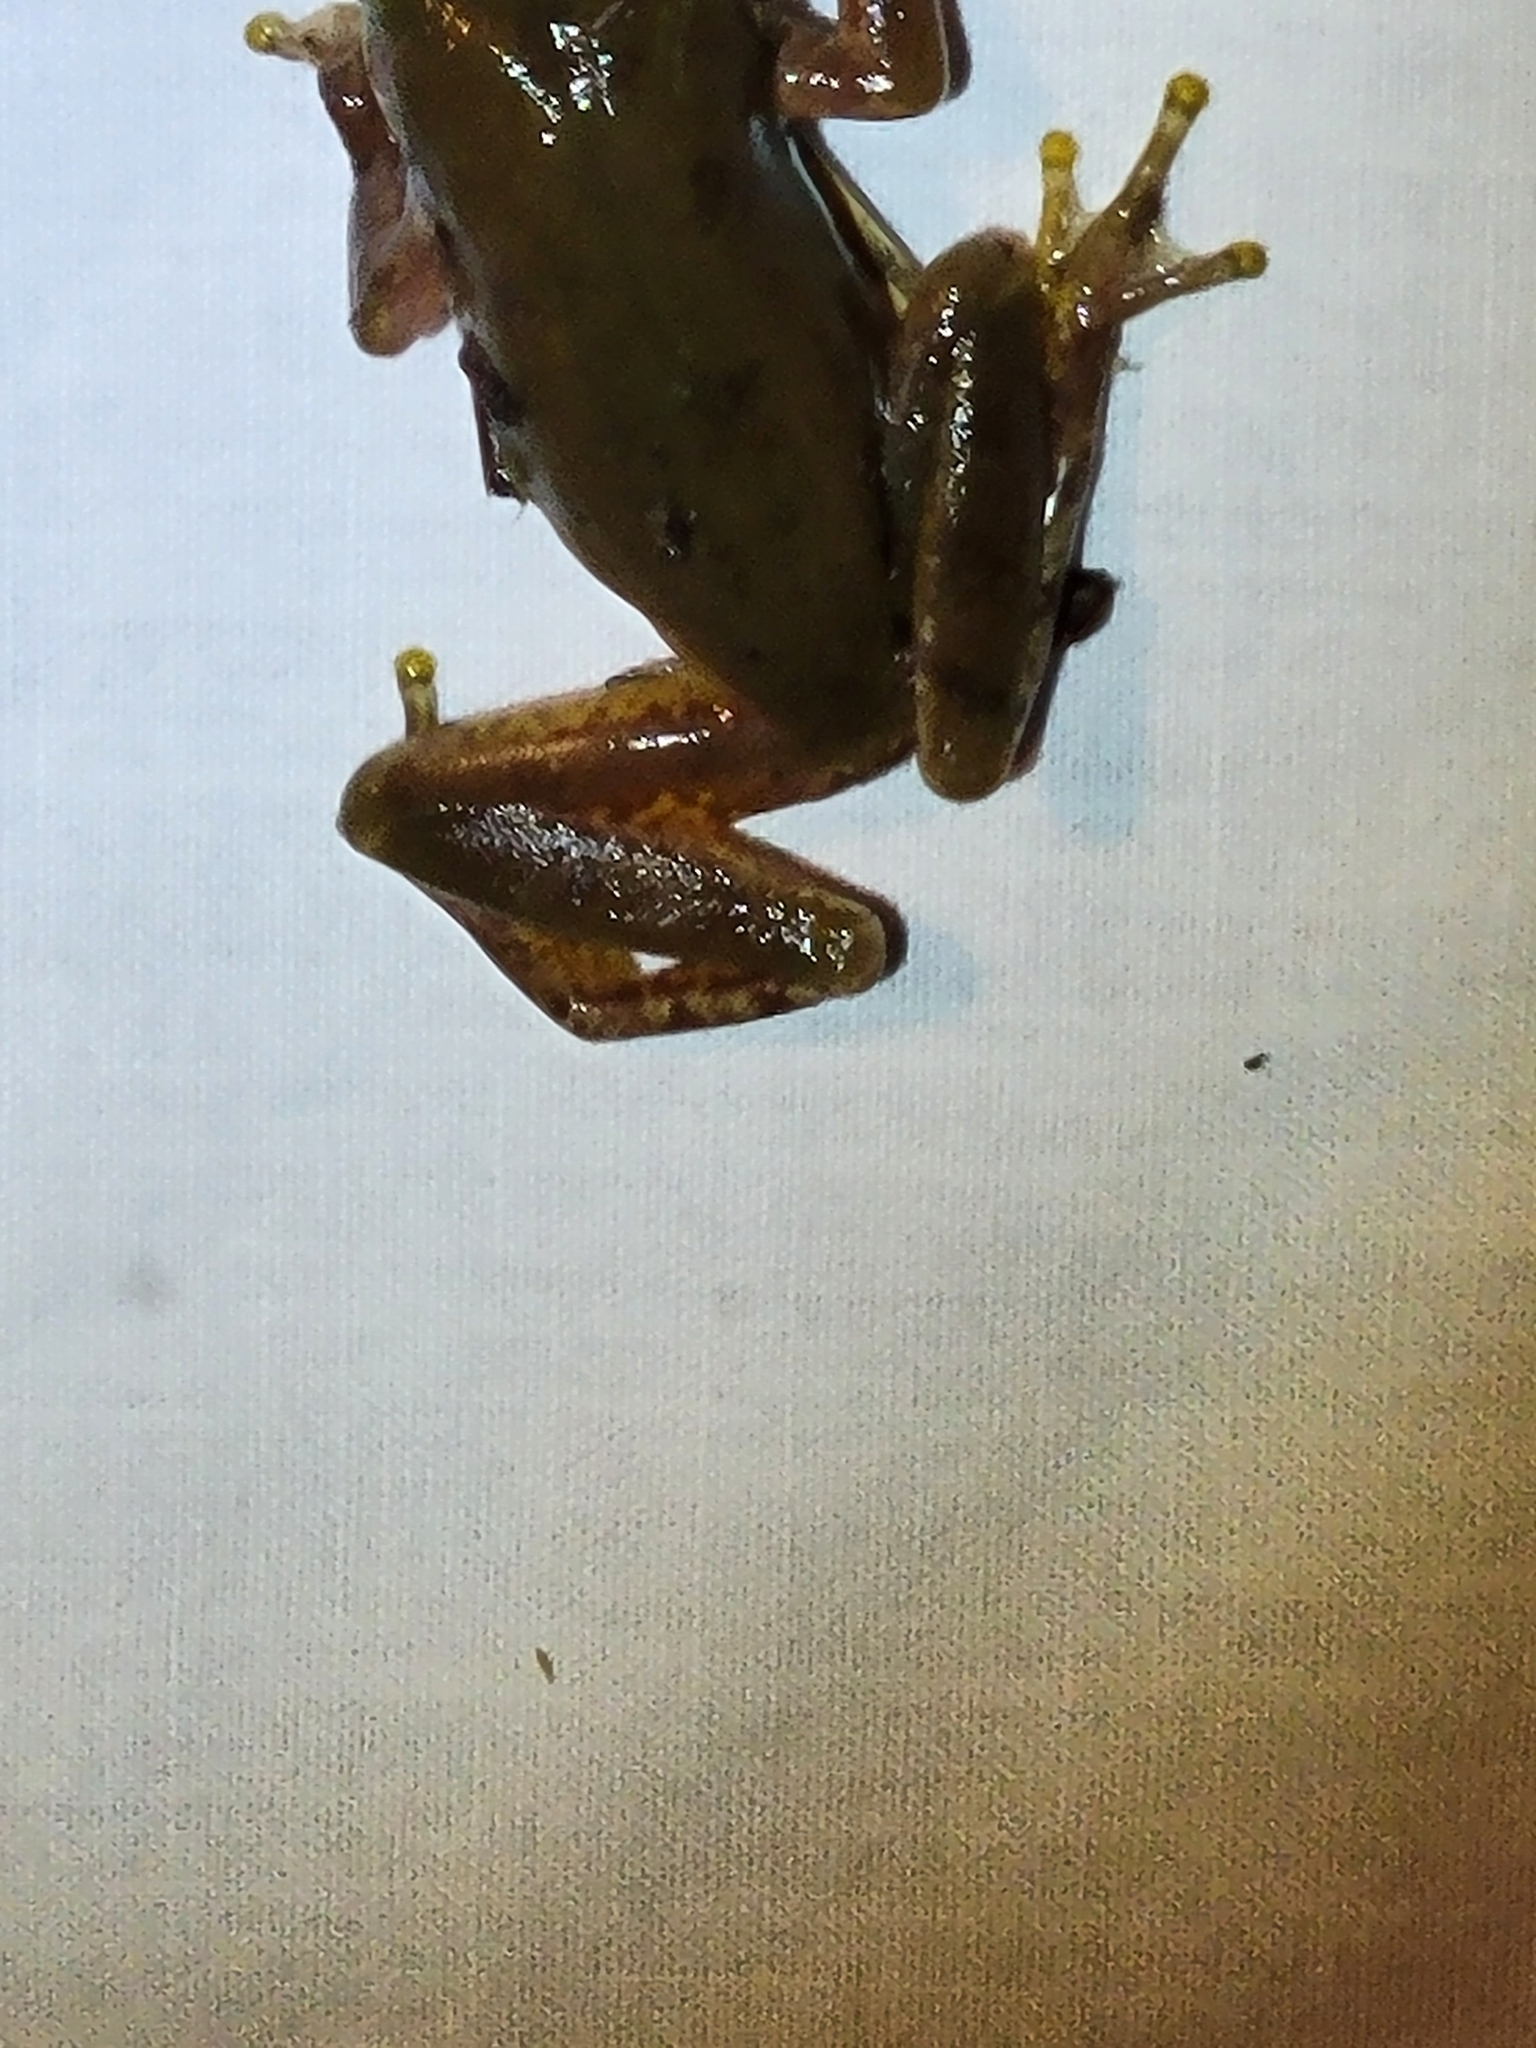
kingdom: Animalia
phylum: Chordata
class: Amphibia
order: Anura
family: Hylidae
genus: Dryophytes
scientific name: Dryophytes squirellus
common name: Squirrel treefrog
